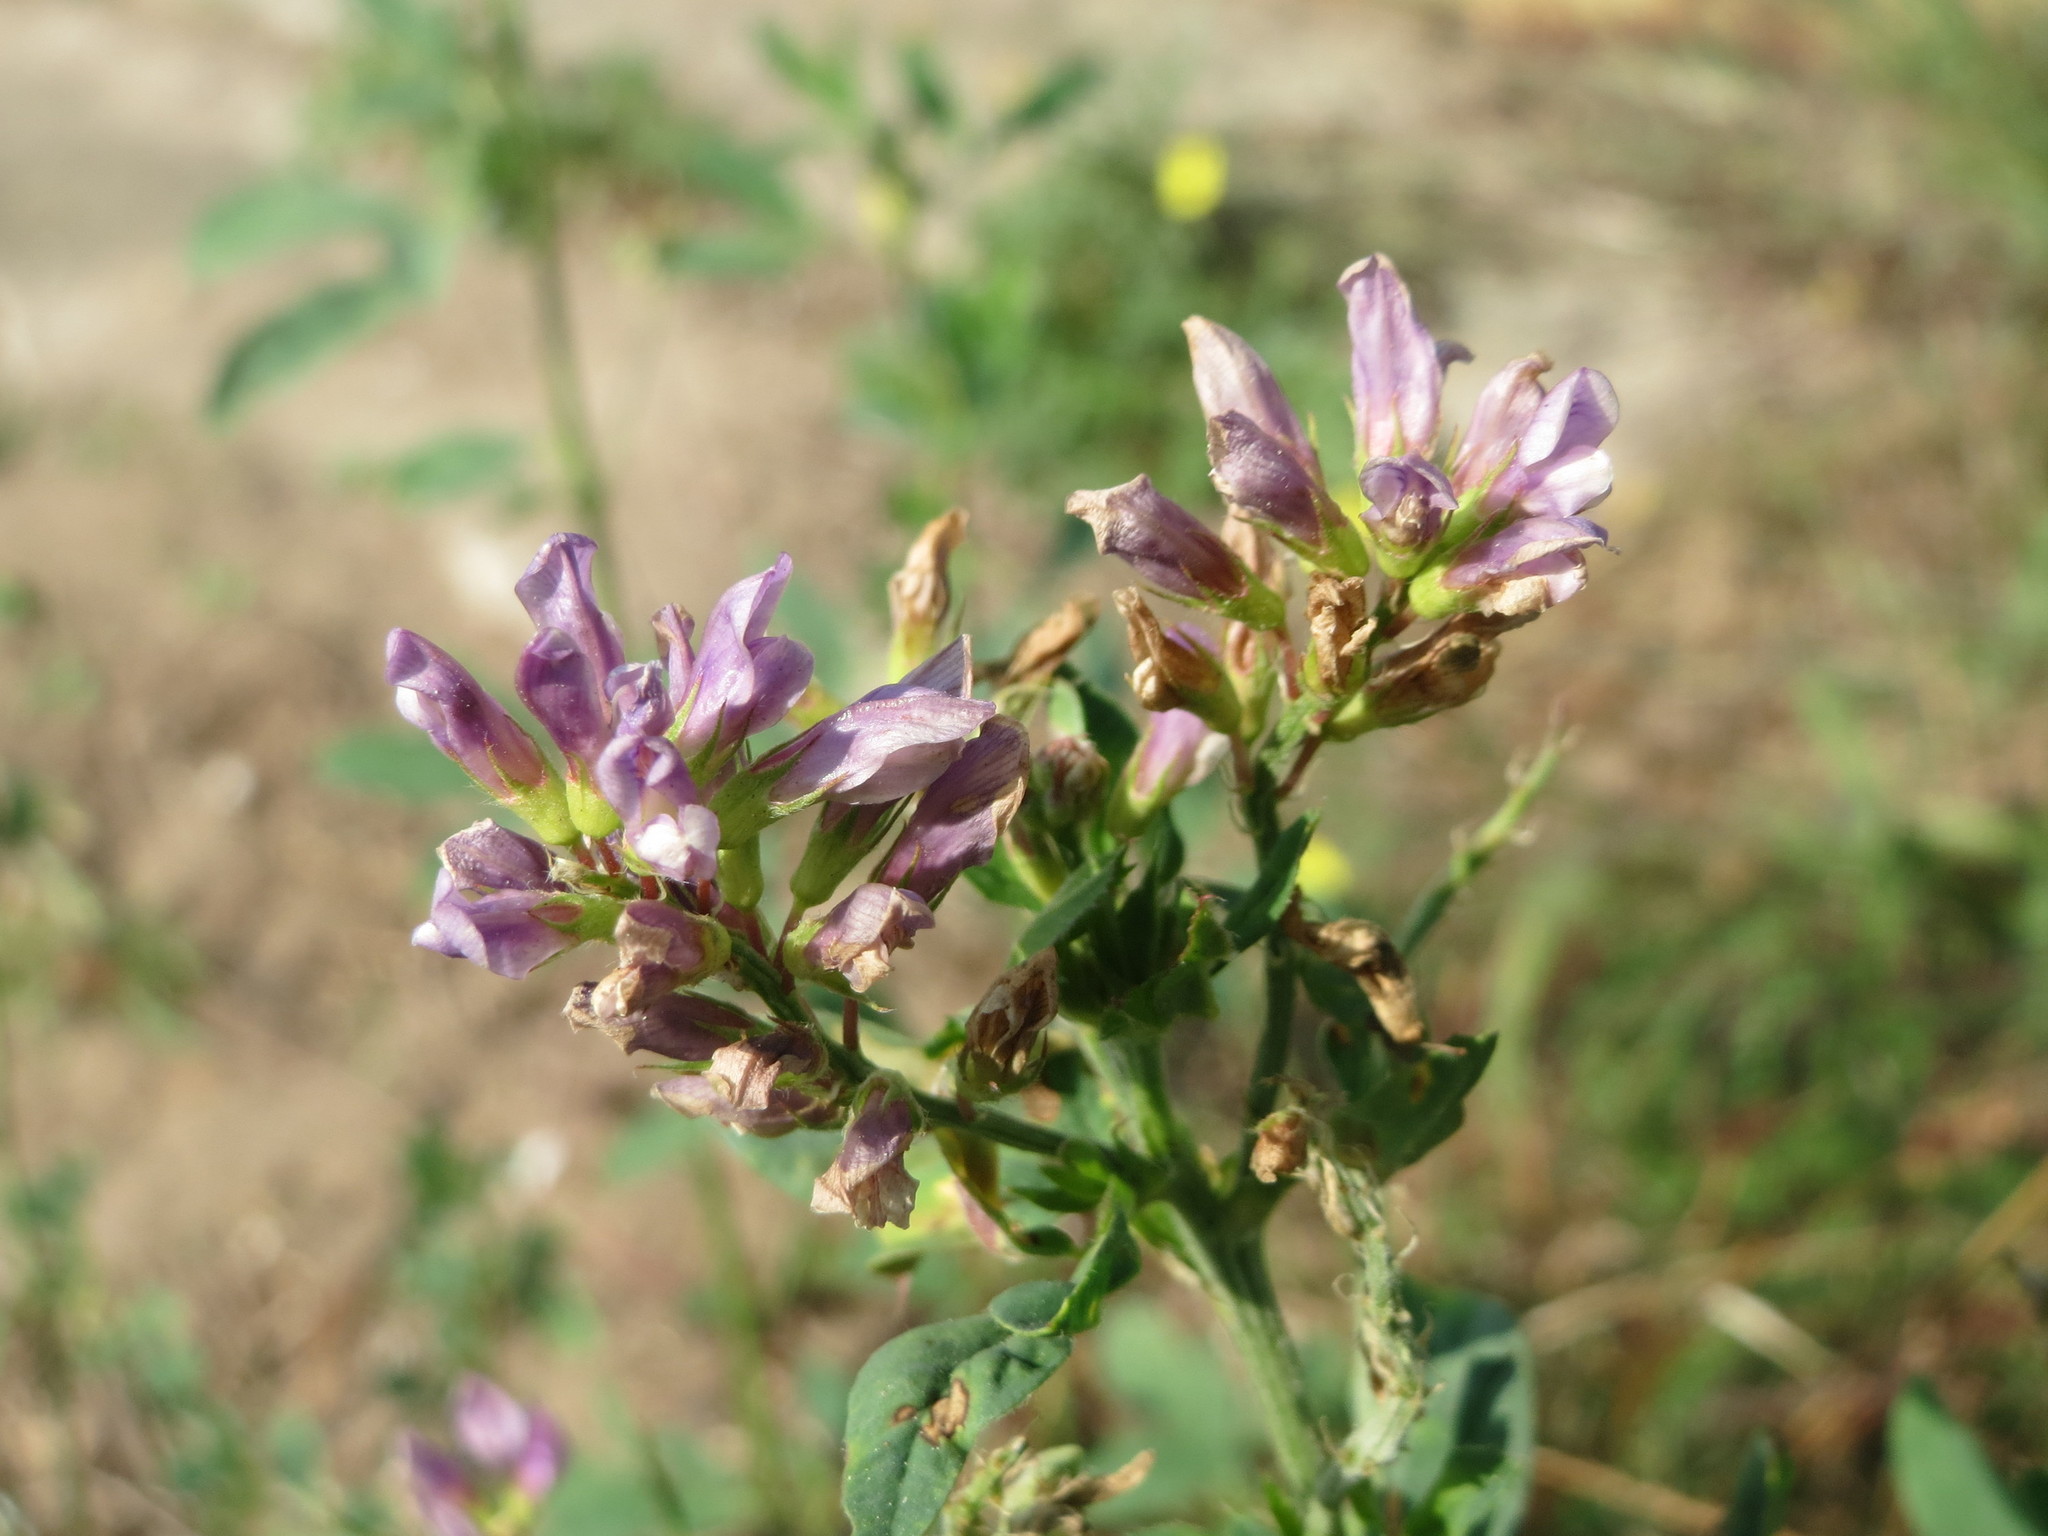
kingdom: Plantae
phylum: Tracheophyta
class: Magnoliopsida
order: Fabales
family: Fabaceae
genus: Medicago
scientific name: Medicago sativa
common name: Alfalfa
